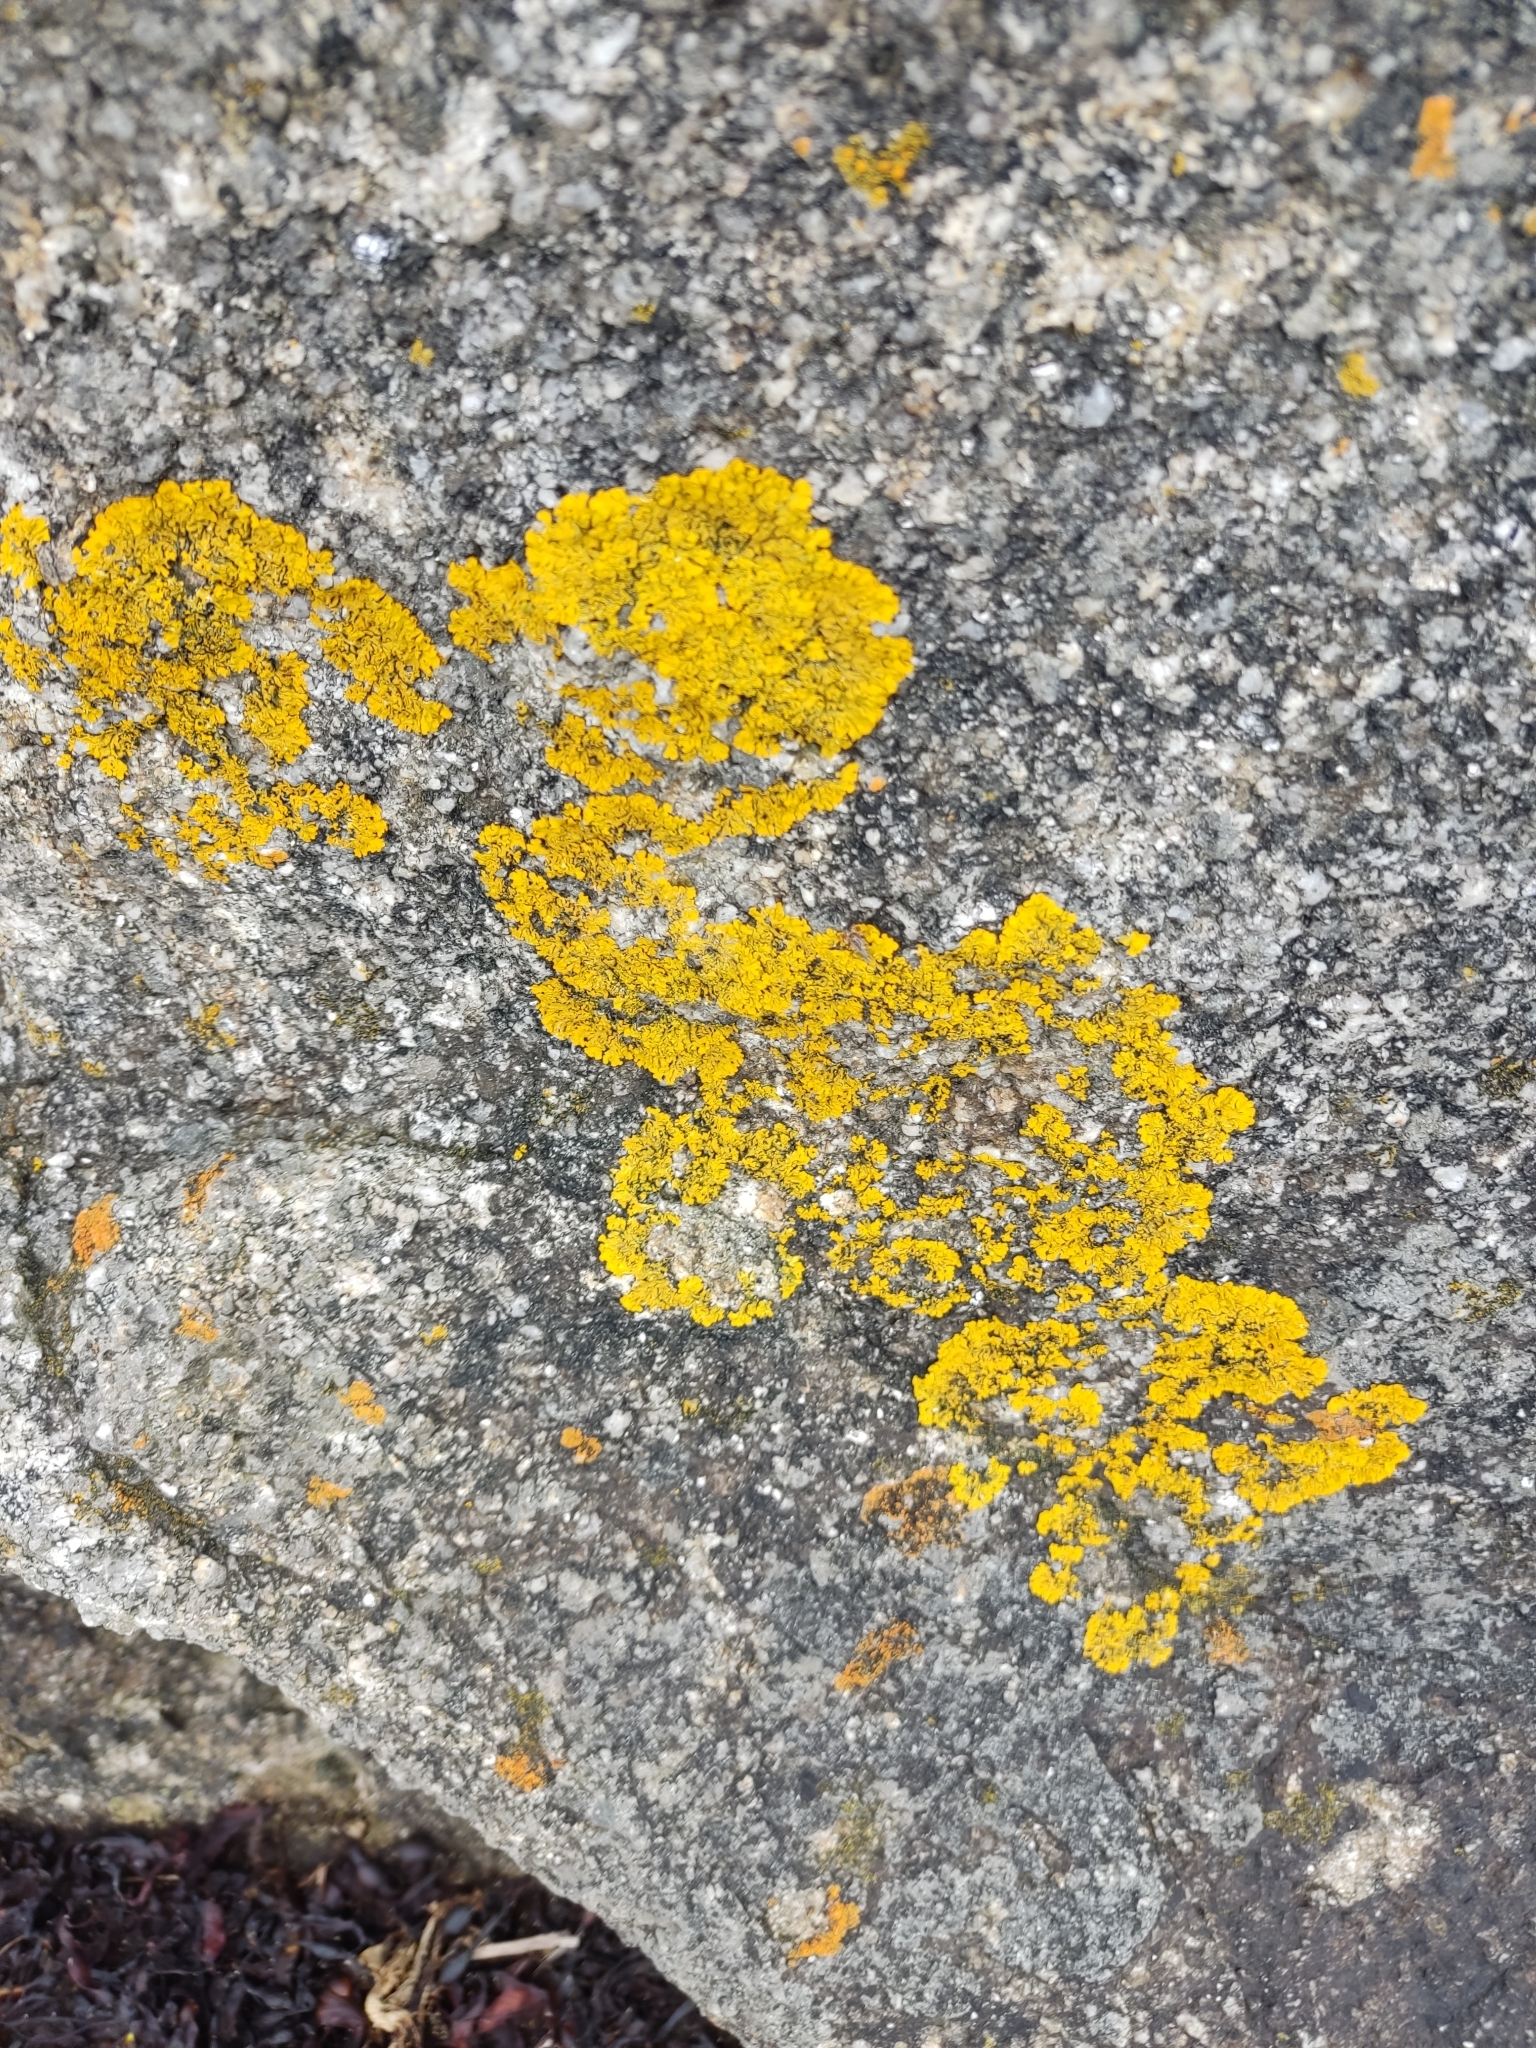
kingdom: Fungi
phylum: Ascomycota
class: Lecanoromycetes
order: Teloschistales
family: Teloschistaceae
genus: Xanthoria
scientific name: Xanthoria calcicola
